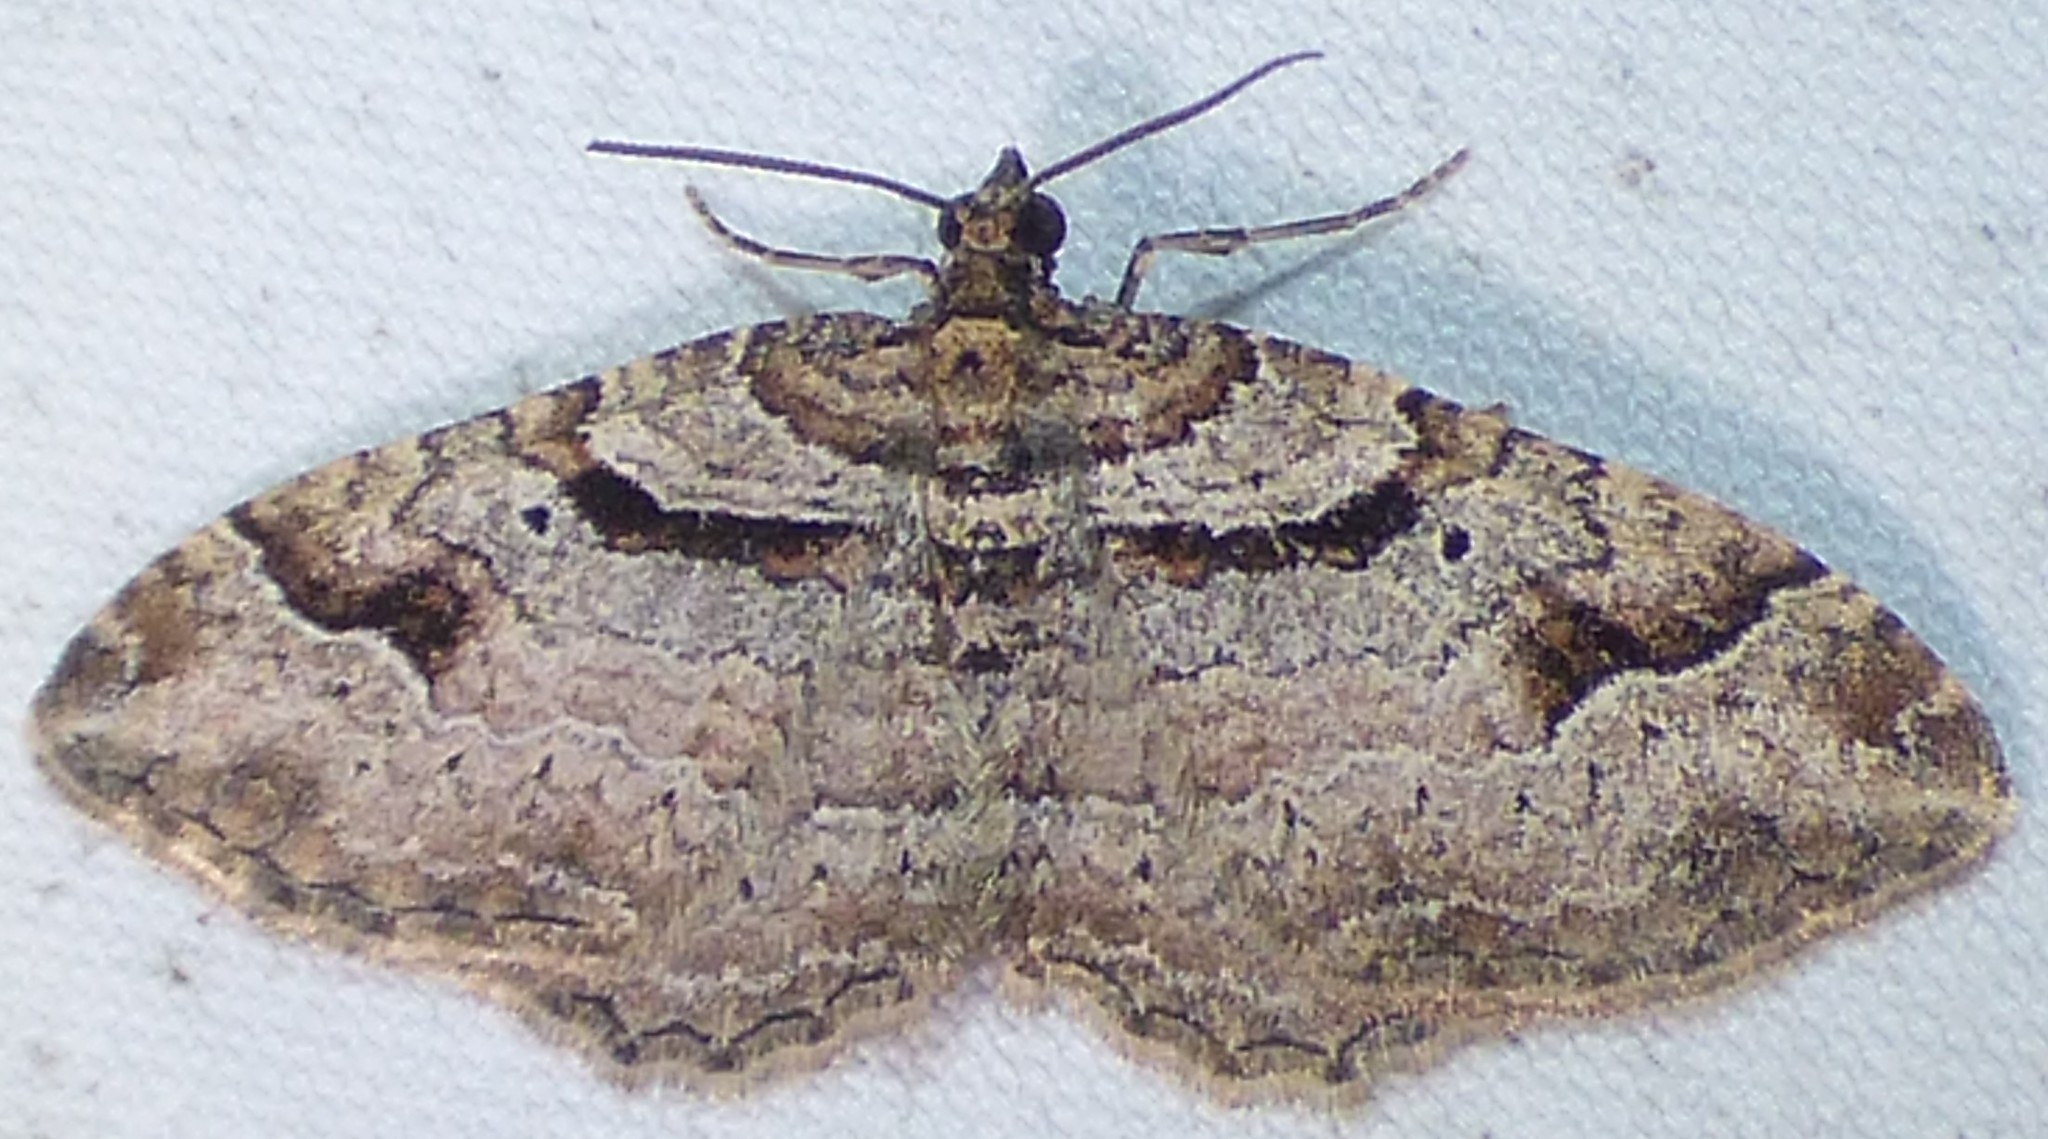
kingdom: Animalia
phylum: Arthropoda
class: Insecta
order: Lepidoptera
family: Geometridae
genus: Costaconvexa
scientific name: Costaconvexa centrostrigaria
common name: Bent-line carpet
